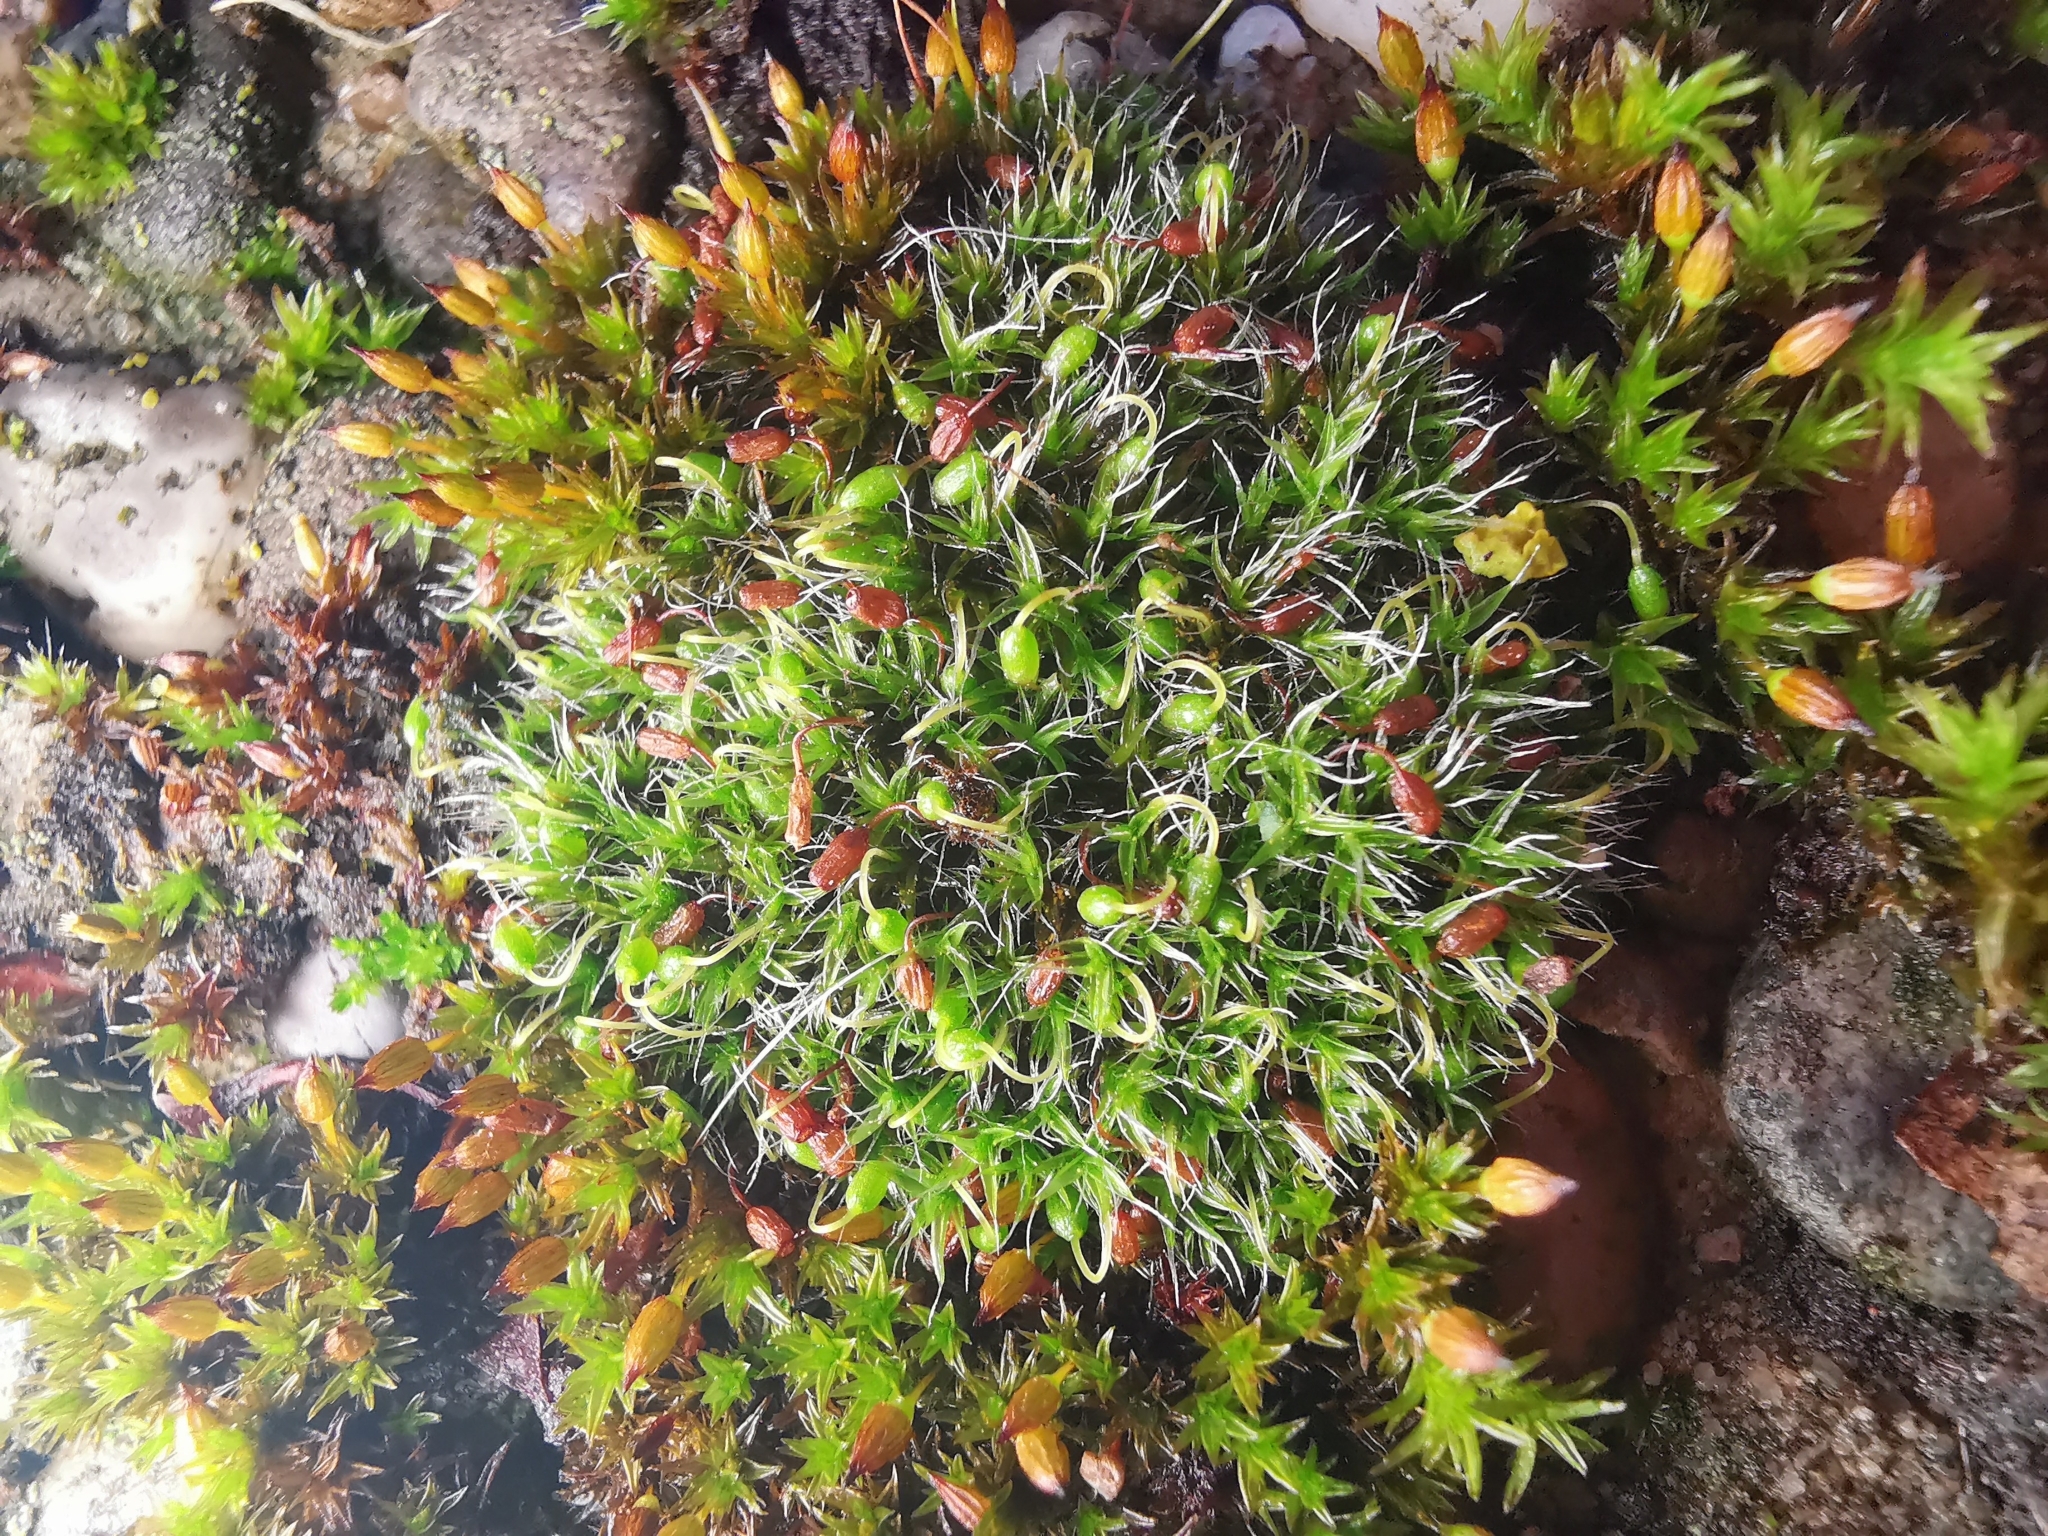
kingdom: Plantae
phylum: Bryophyta
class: Bryopsida
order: Grimmiales
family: Grimmiaceae
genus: Grimmia
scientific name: Grimmia pulvinata
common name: Grey-cushioned grimmia
